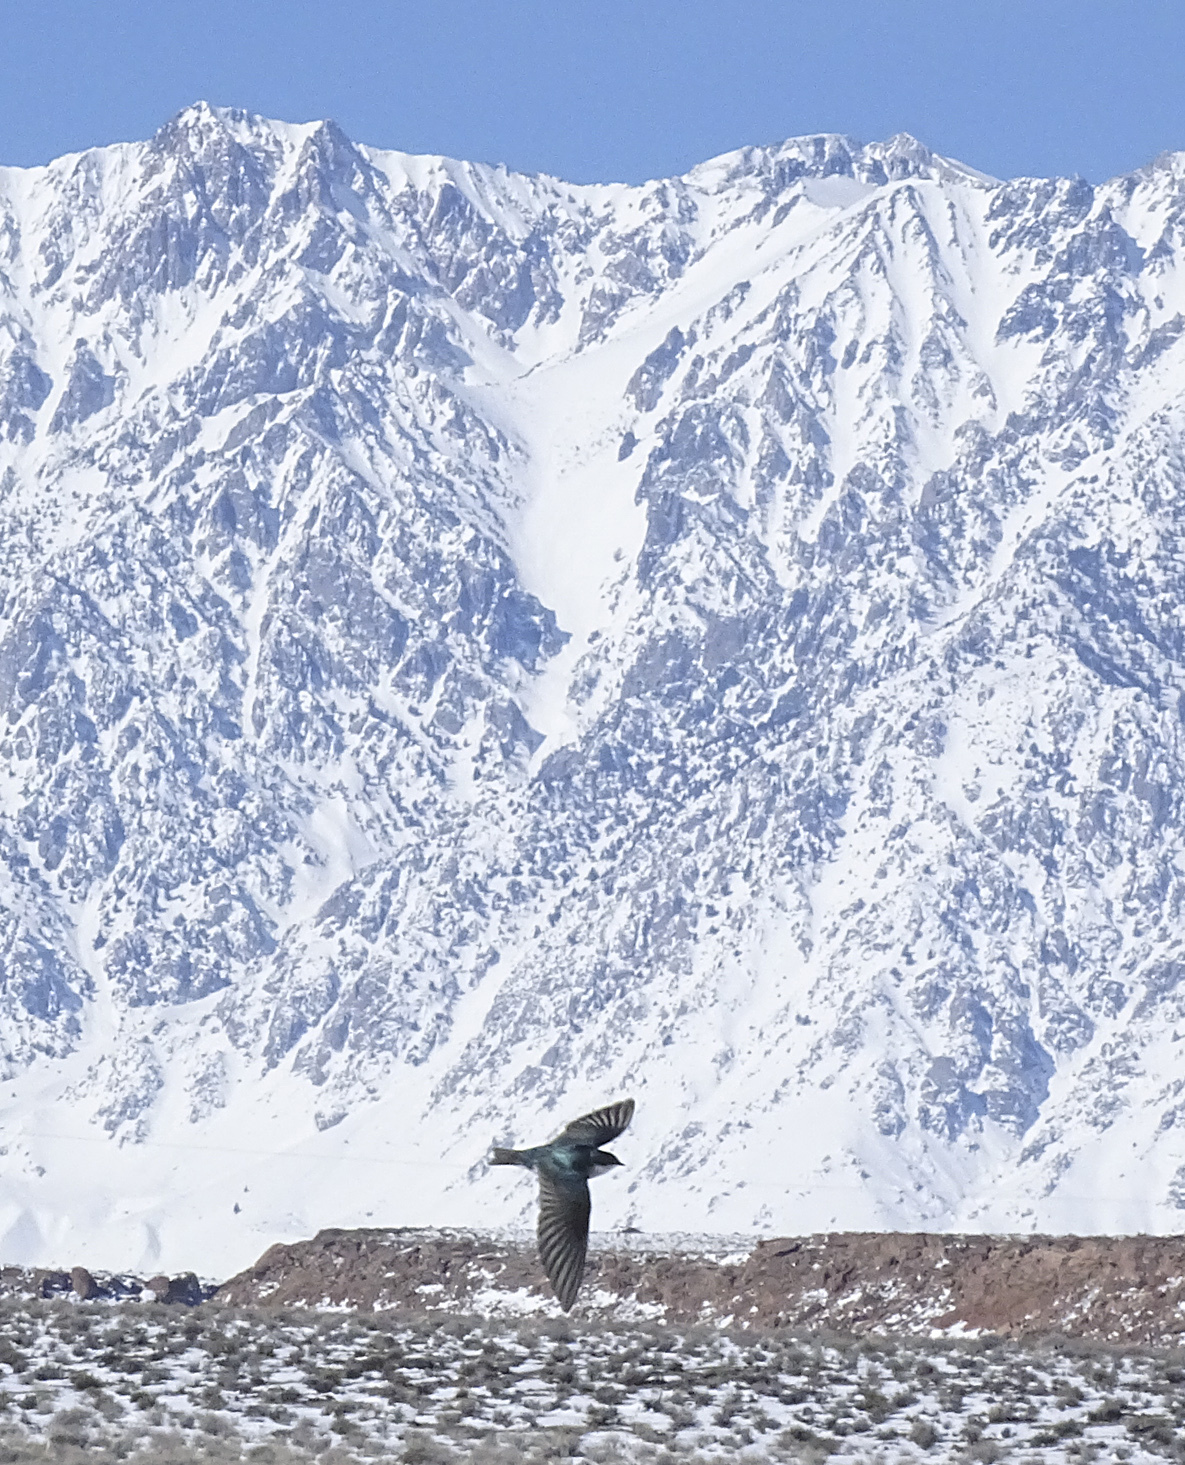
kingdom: Animalia
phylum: Chordata
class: Aves
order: Passeriformes
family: Hirundinidae
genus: Tachycineta
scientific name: Tachycineta bicolor
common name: Tree swallow
